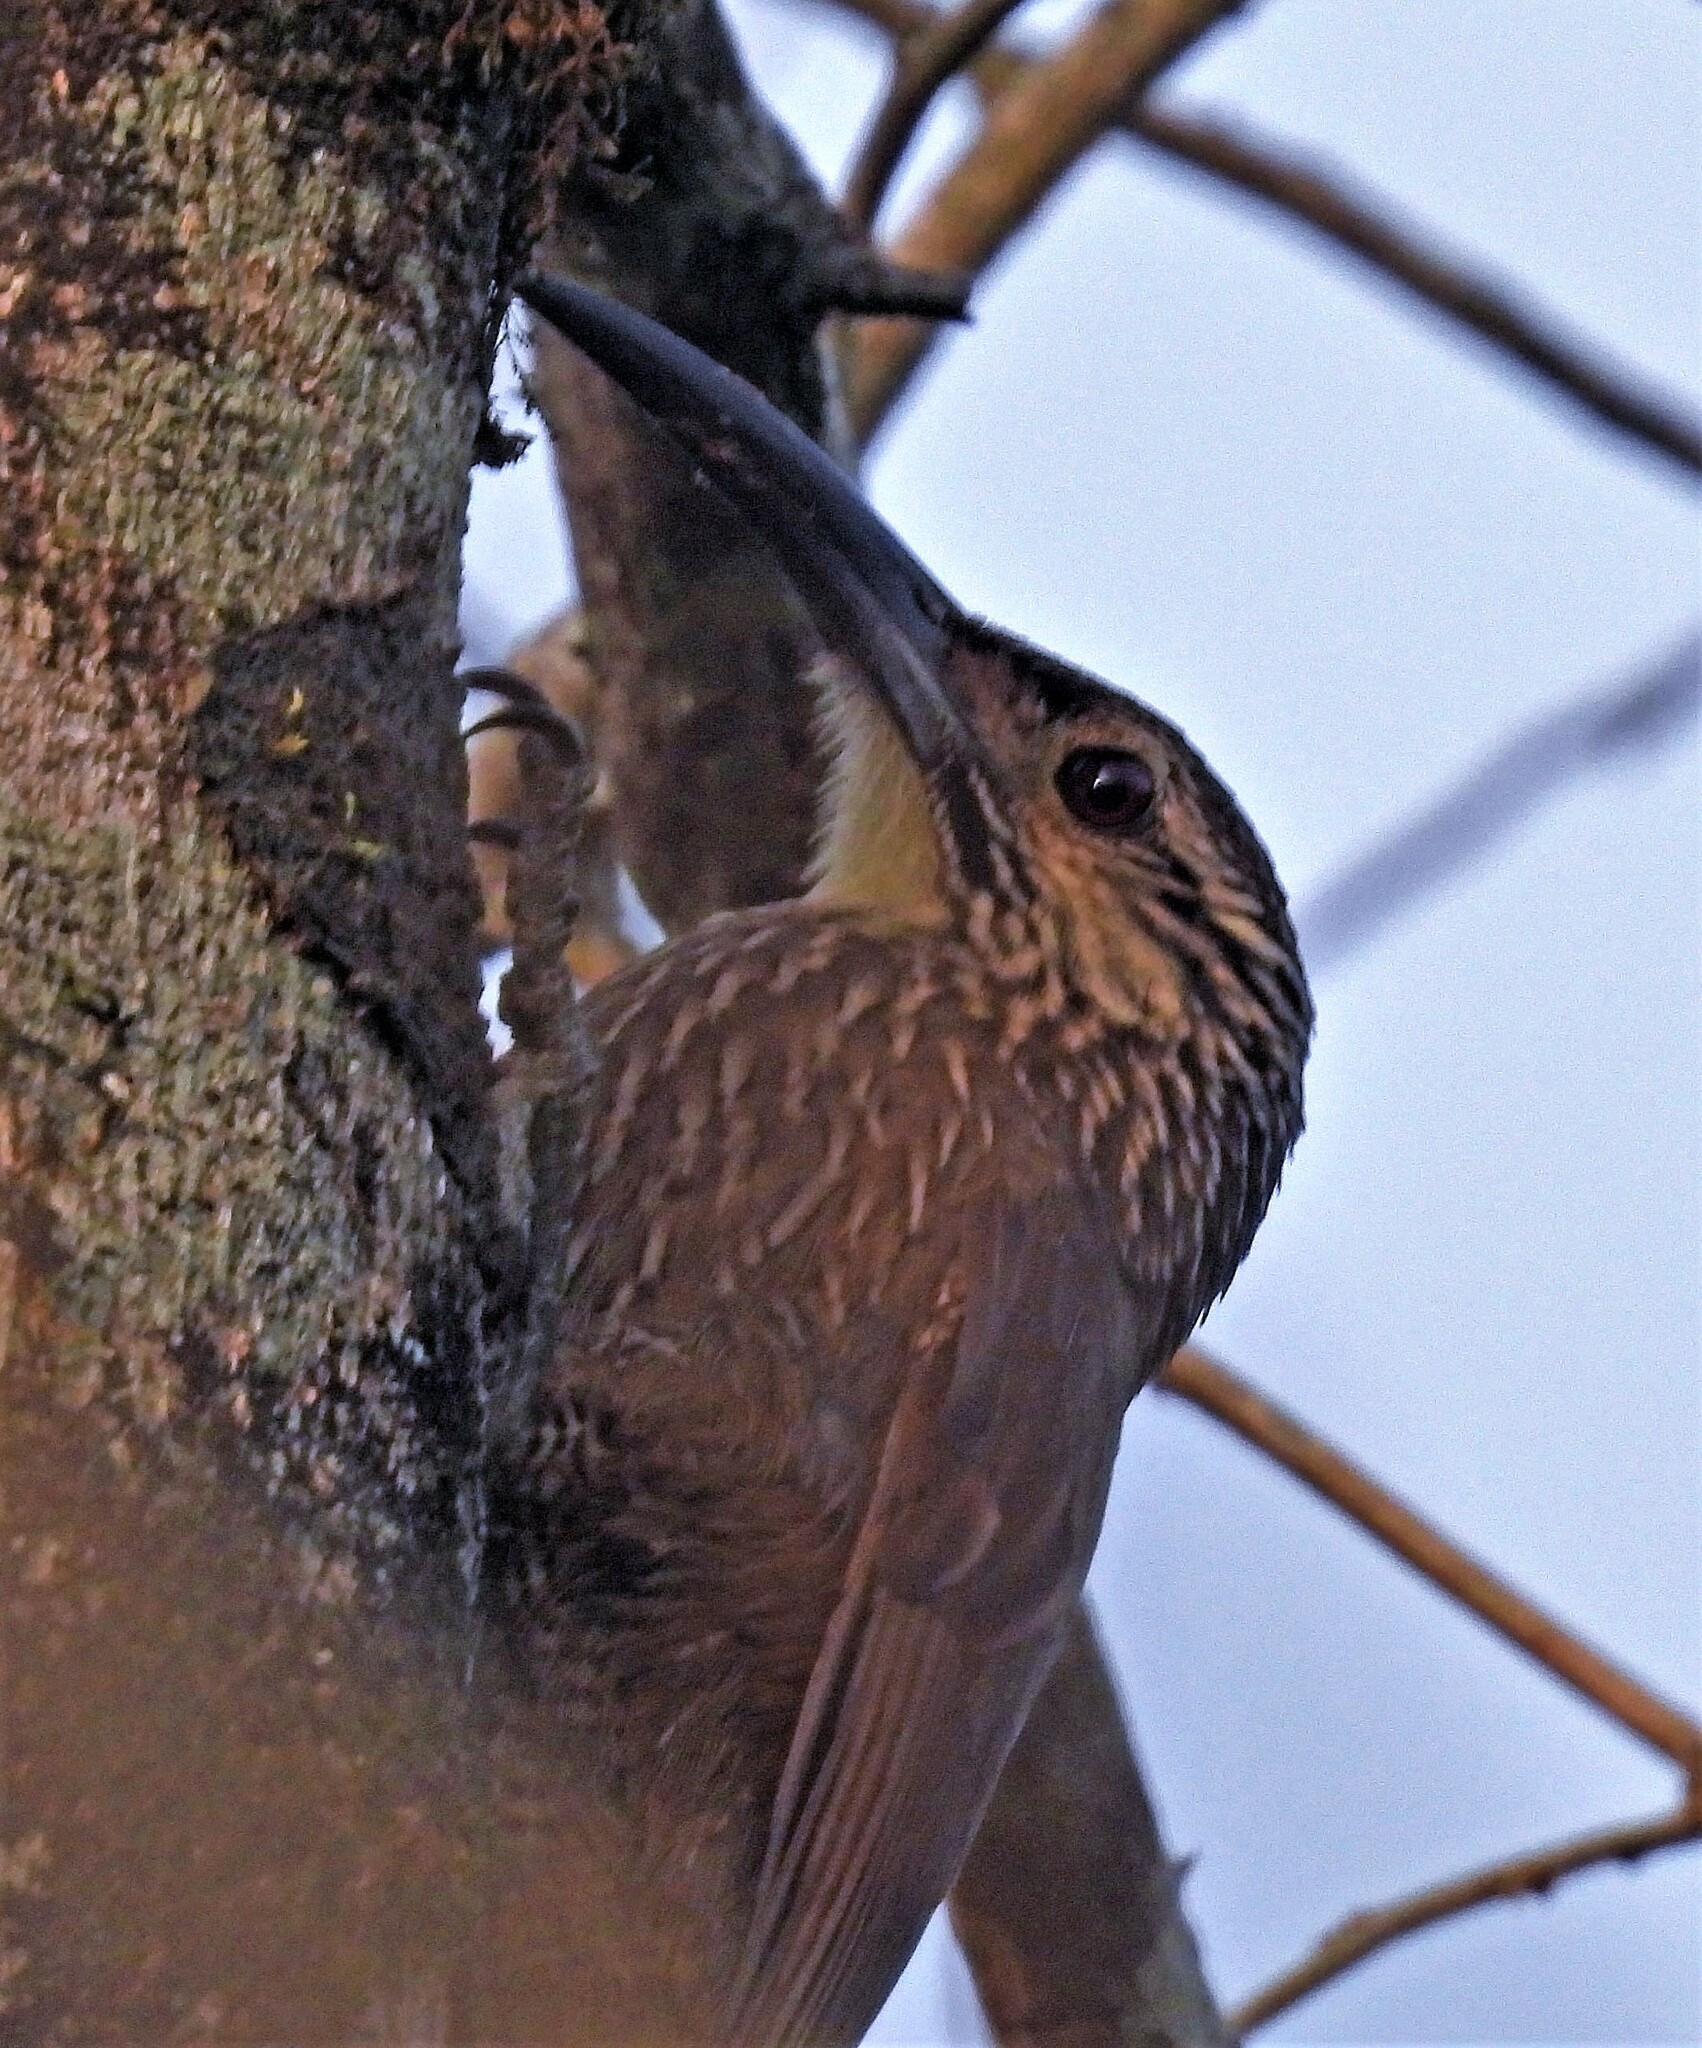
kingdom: Animalia
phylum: Chordata
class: Aves
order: Passeriformes
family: Furnariidae
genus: Xiphocolaptes
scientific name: Xiphocolaptes albicollis
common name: White-throated woodcreeper
